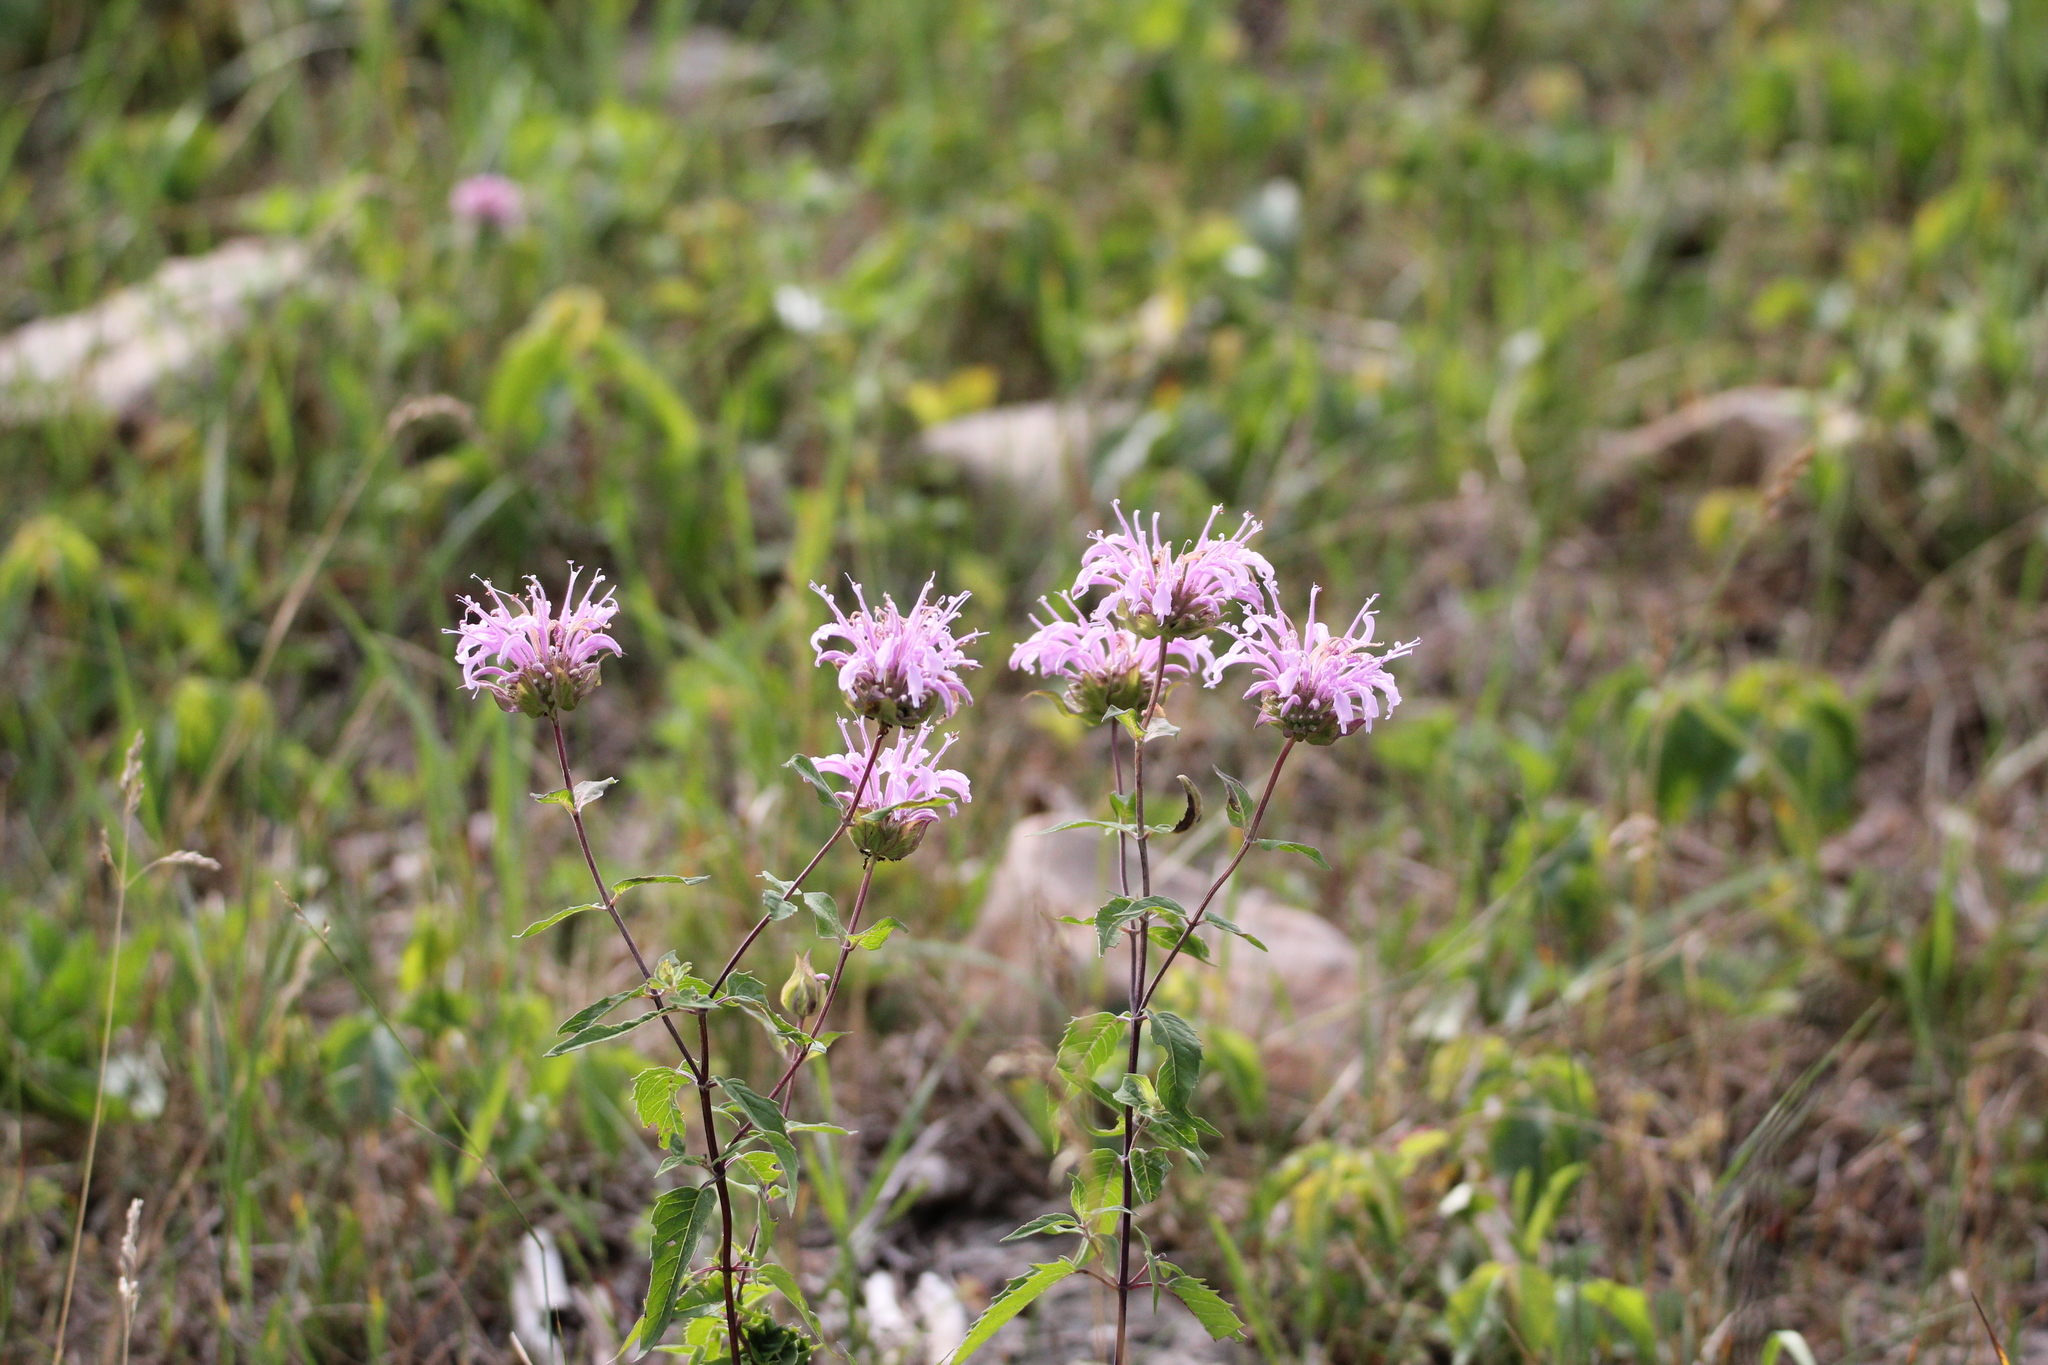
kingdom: Plantae
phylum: Tracheophyta
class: Magnoliopsida
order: Lamiales
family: Lamiaceae
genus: Monarda
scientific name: Monarda fistulosa
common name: Purple beebalm
